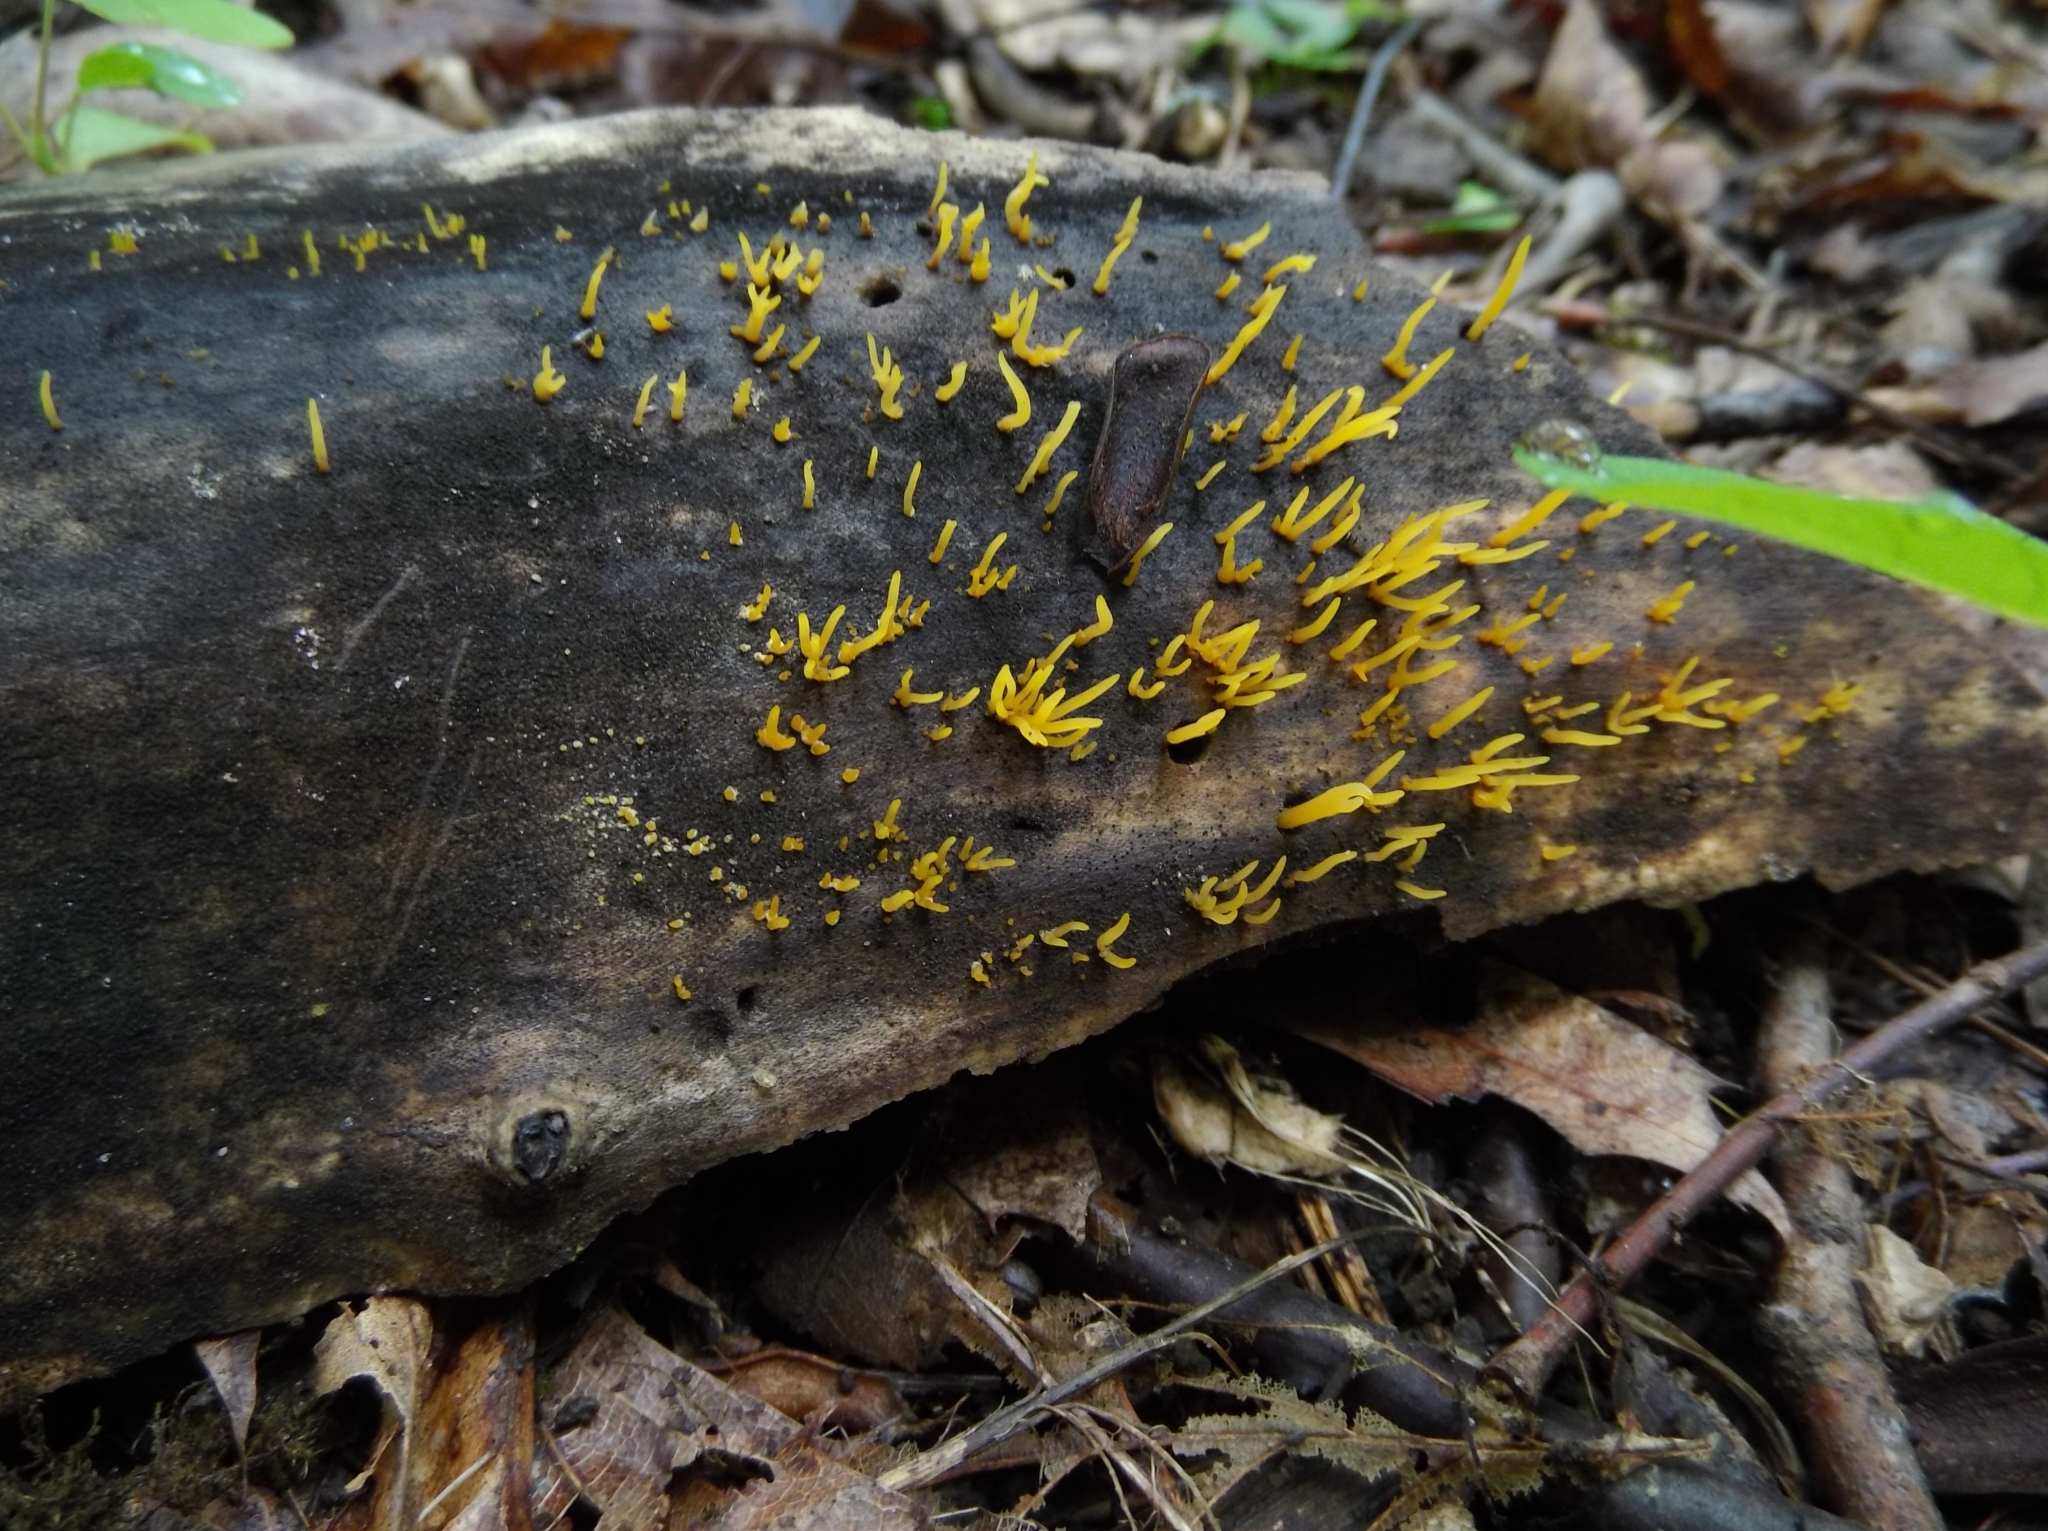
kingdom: Fungi
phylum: Basidiomycota
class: Dacrymycetes
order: Dacrymycetales
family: Dacrymycetaceae
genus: Calocera
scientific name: Calocera cornea
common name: Small stagshorn
